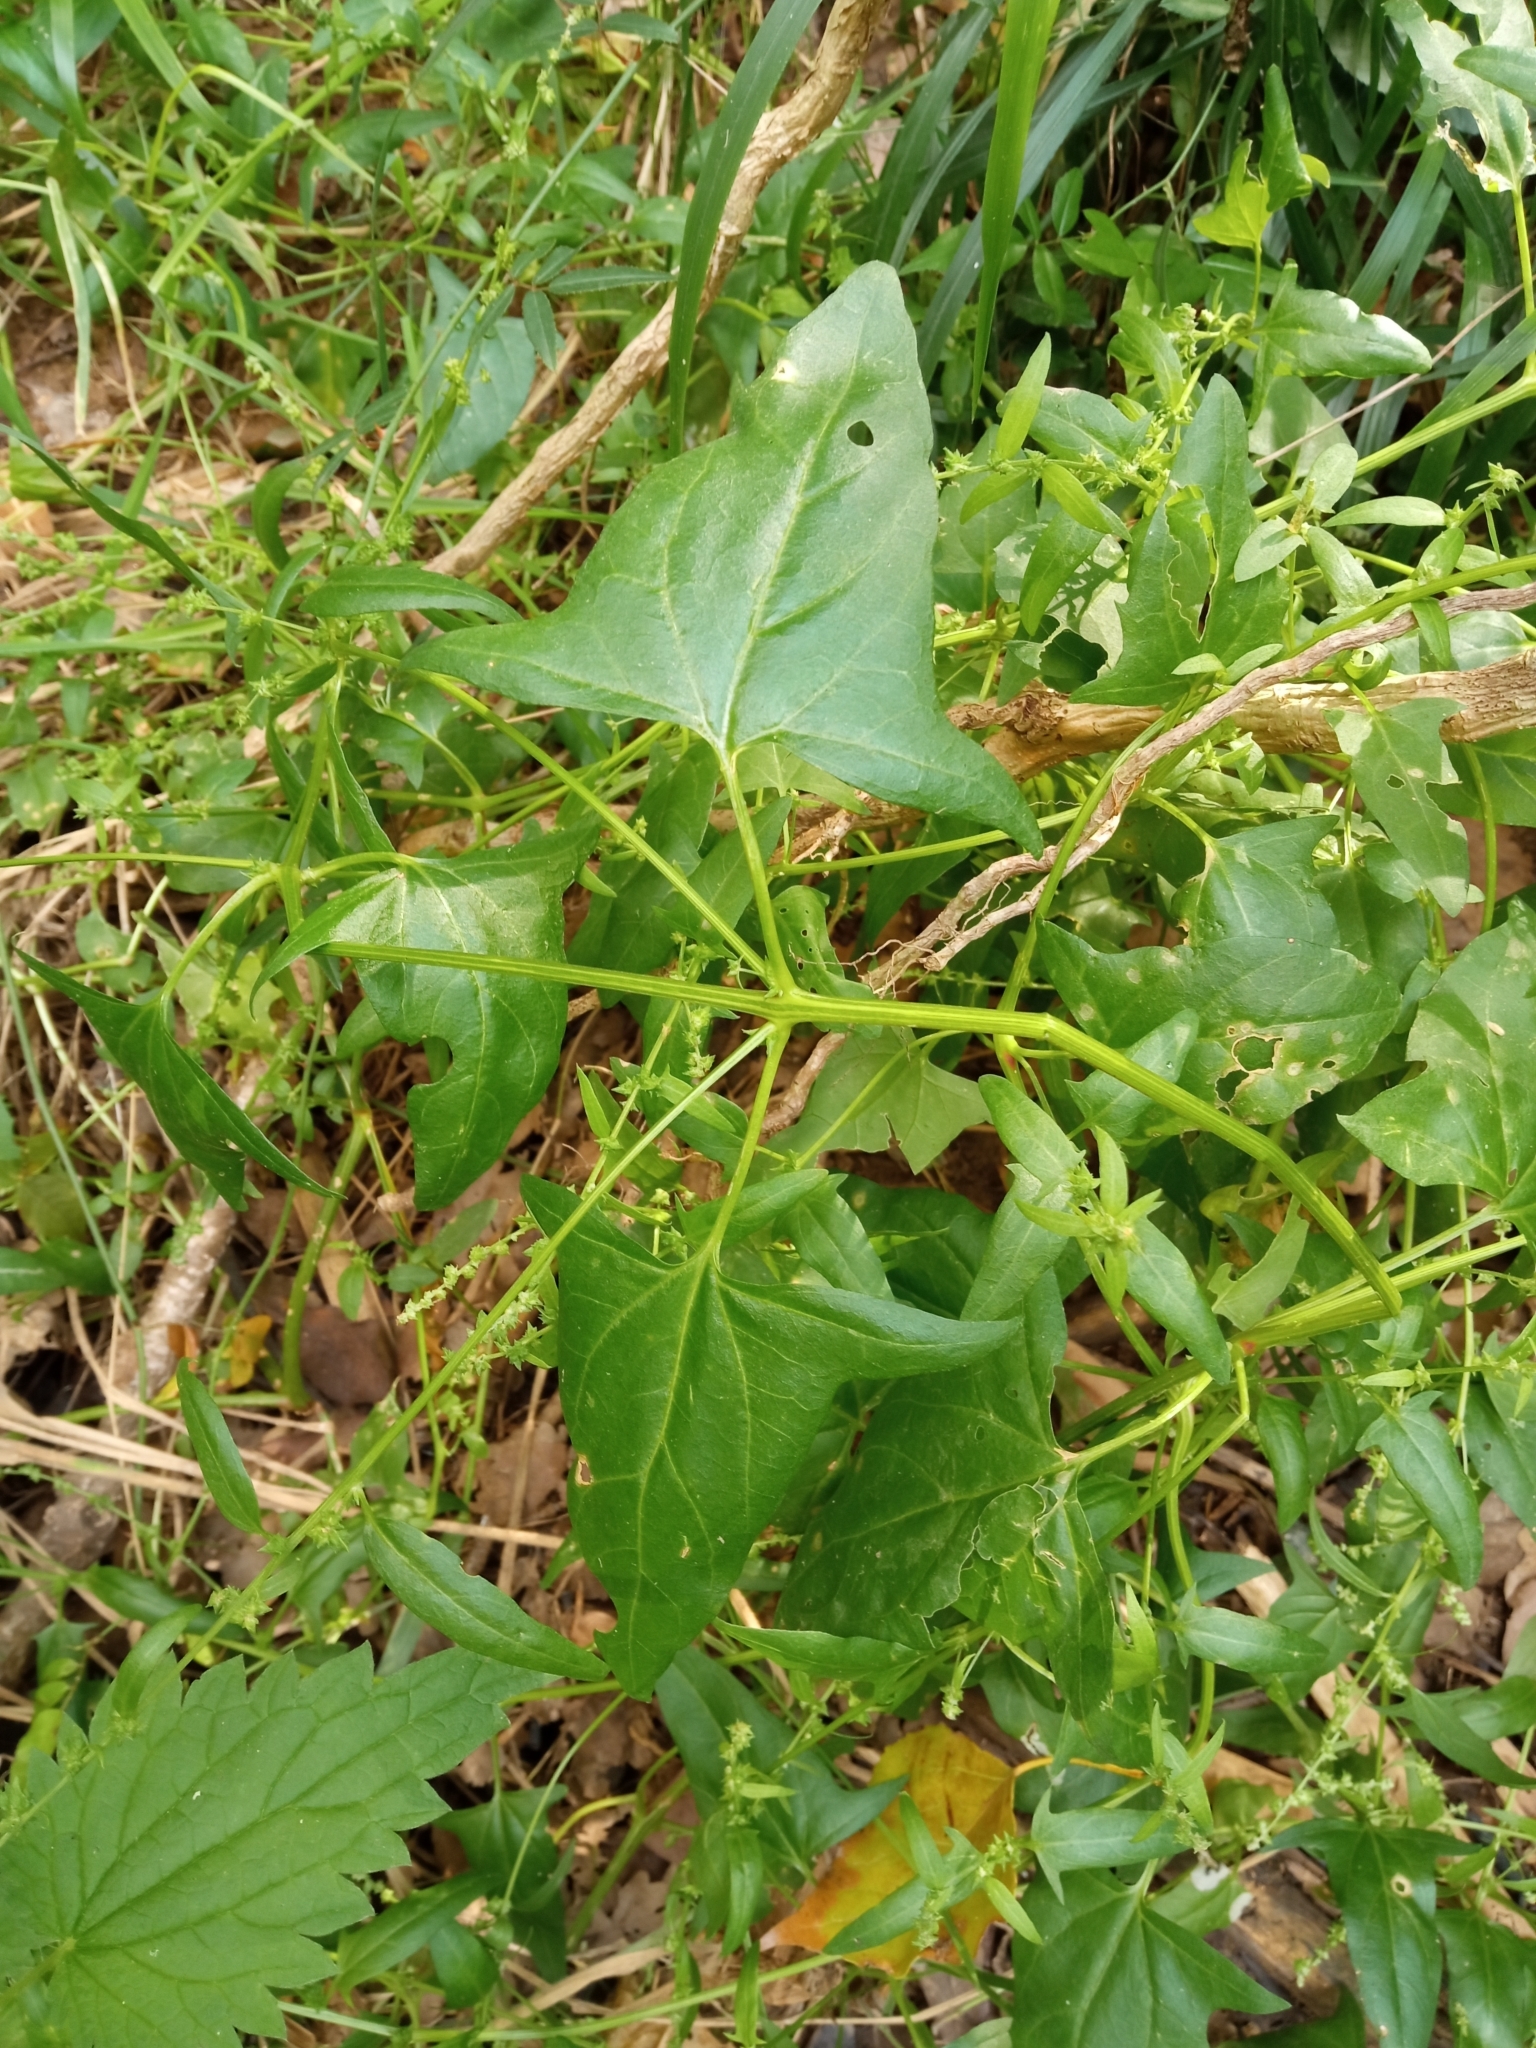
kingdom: Plantae
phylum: Tracheophyta
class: Magnoliopsida
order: Caryophyllales
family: Amaranthaceae
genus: Atriplex
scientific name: Atriplex prostrata
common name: Spear-leaved orache
